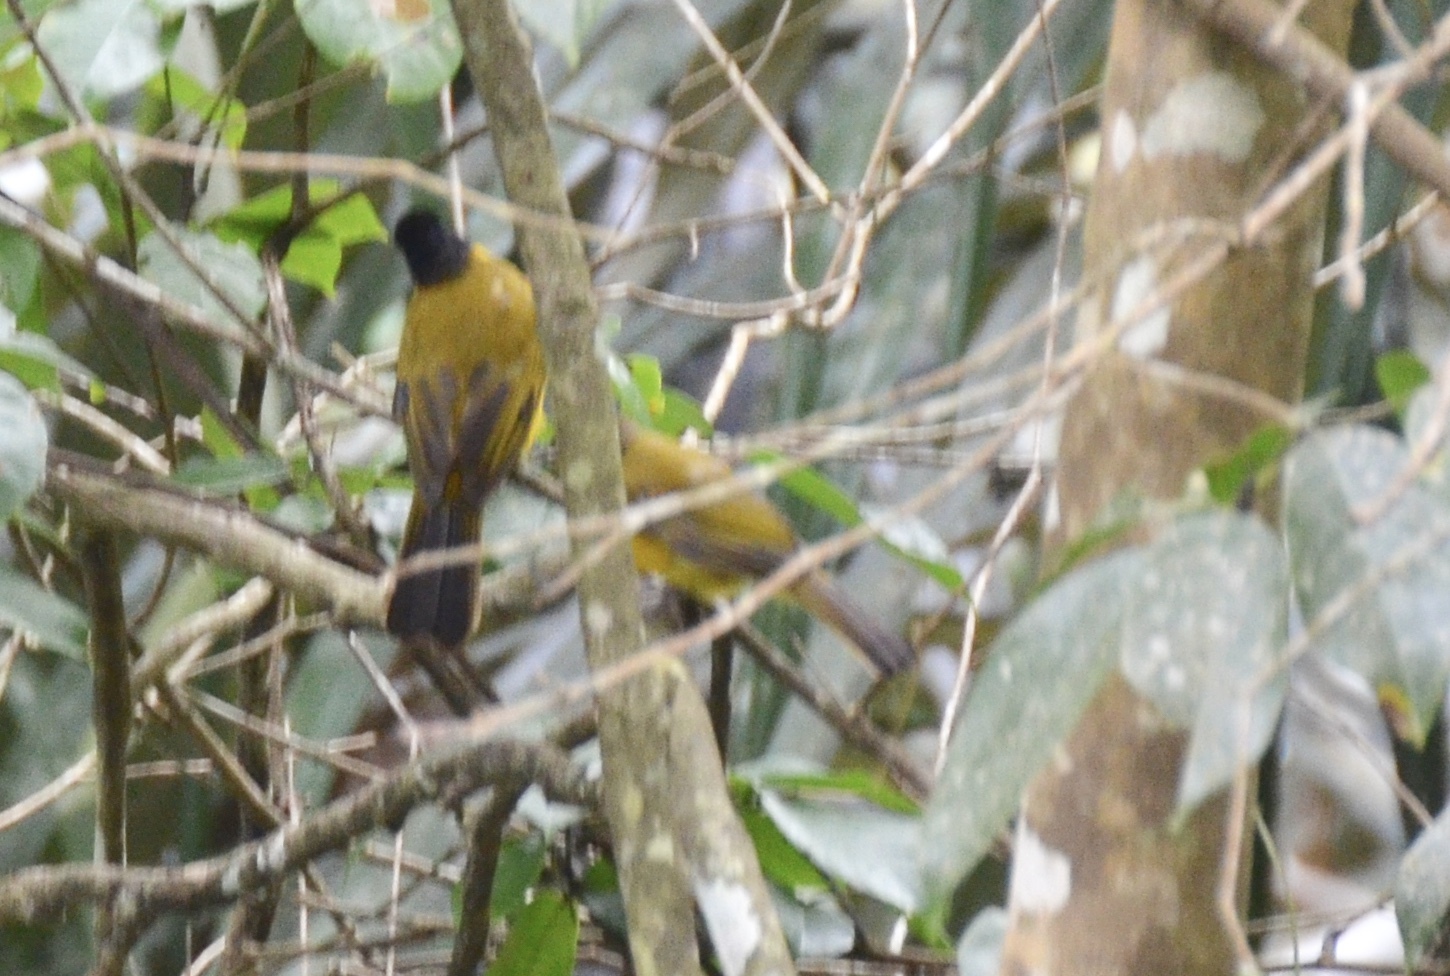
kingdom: Animalia
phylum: Chordata
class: Aves
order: Passeriformes
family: Pycnonotidae
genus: Pycnonotus
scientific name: Pycnonotus dispar
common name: Ruby-throated bulbul
